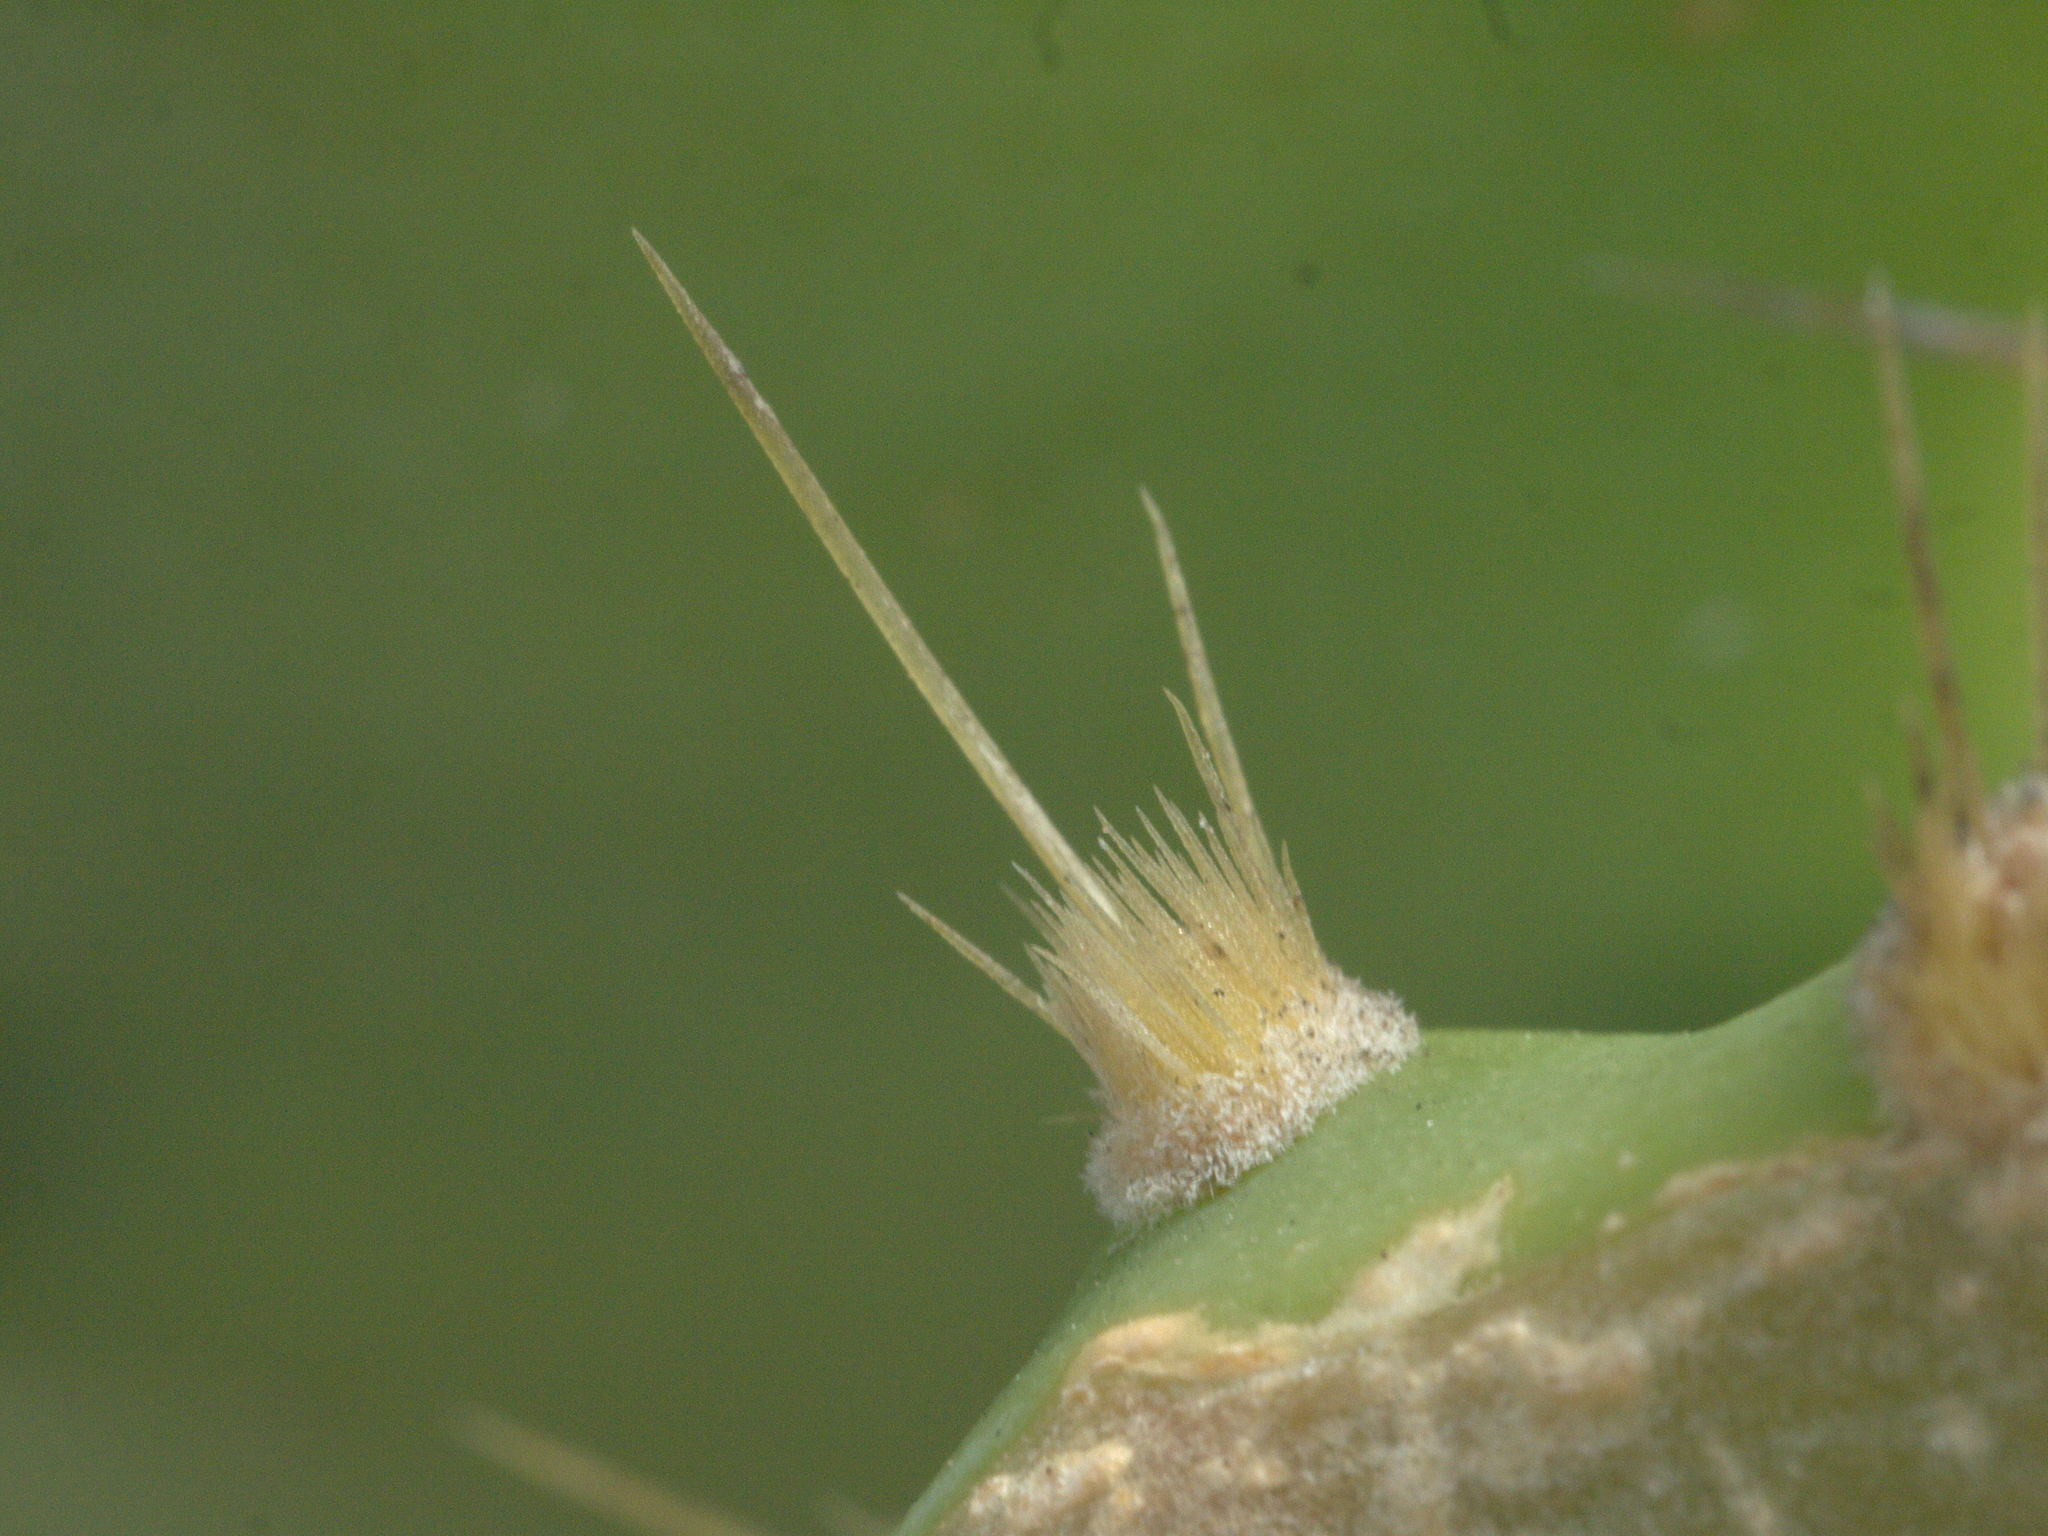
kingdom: Plantae
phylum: Tracheophyta
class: Magnoliopsida
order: Caryophyllales
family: Cactaceae
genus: Opuntia
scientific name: Opuntia stricta
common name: Erect pricklypear
